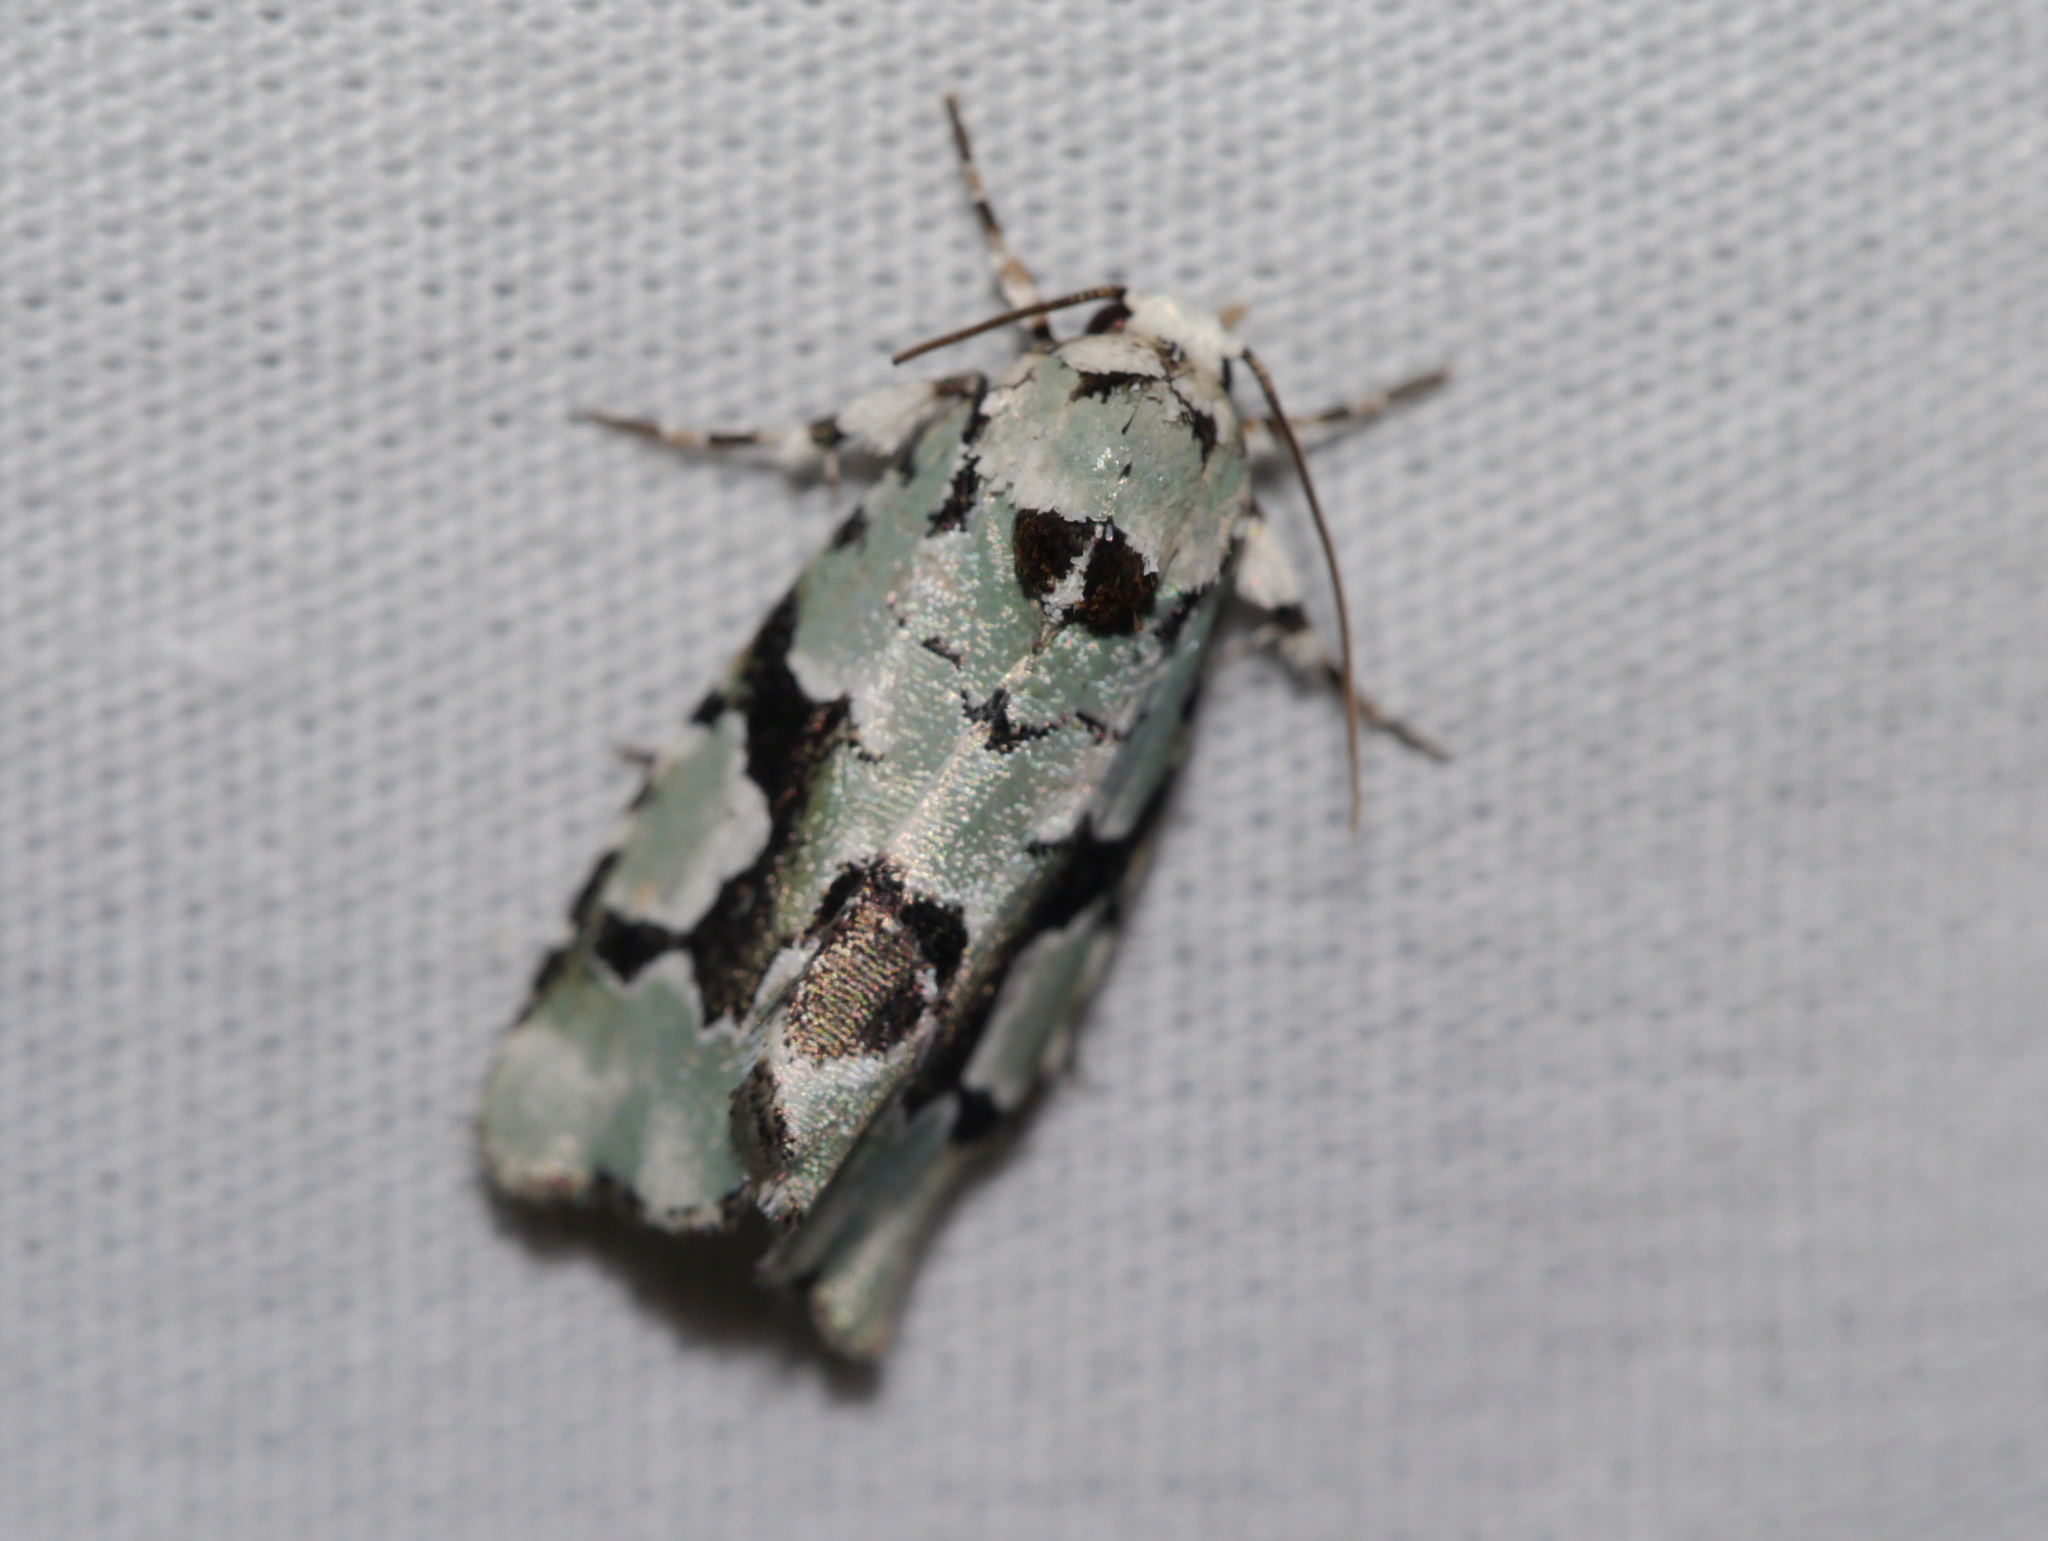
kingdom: Animalia
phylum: Arthropoda
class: Insecta
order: Lepidoptera
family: Noctuidae
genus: Emarginea
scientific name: Emarginea percara
